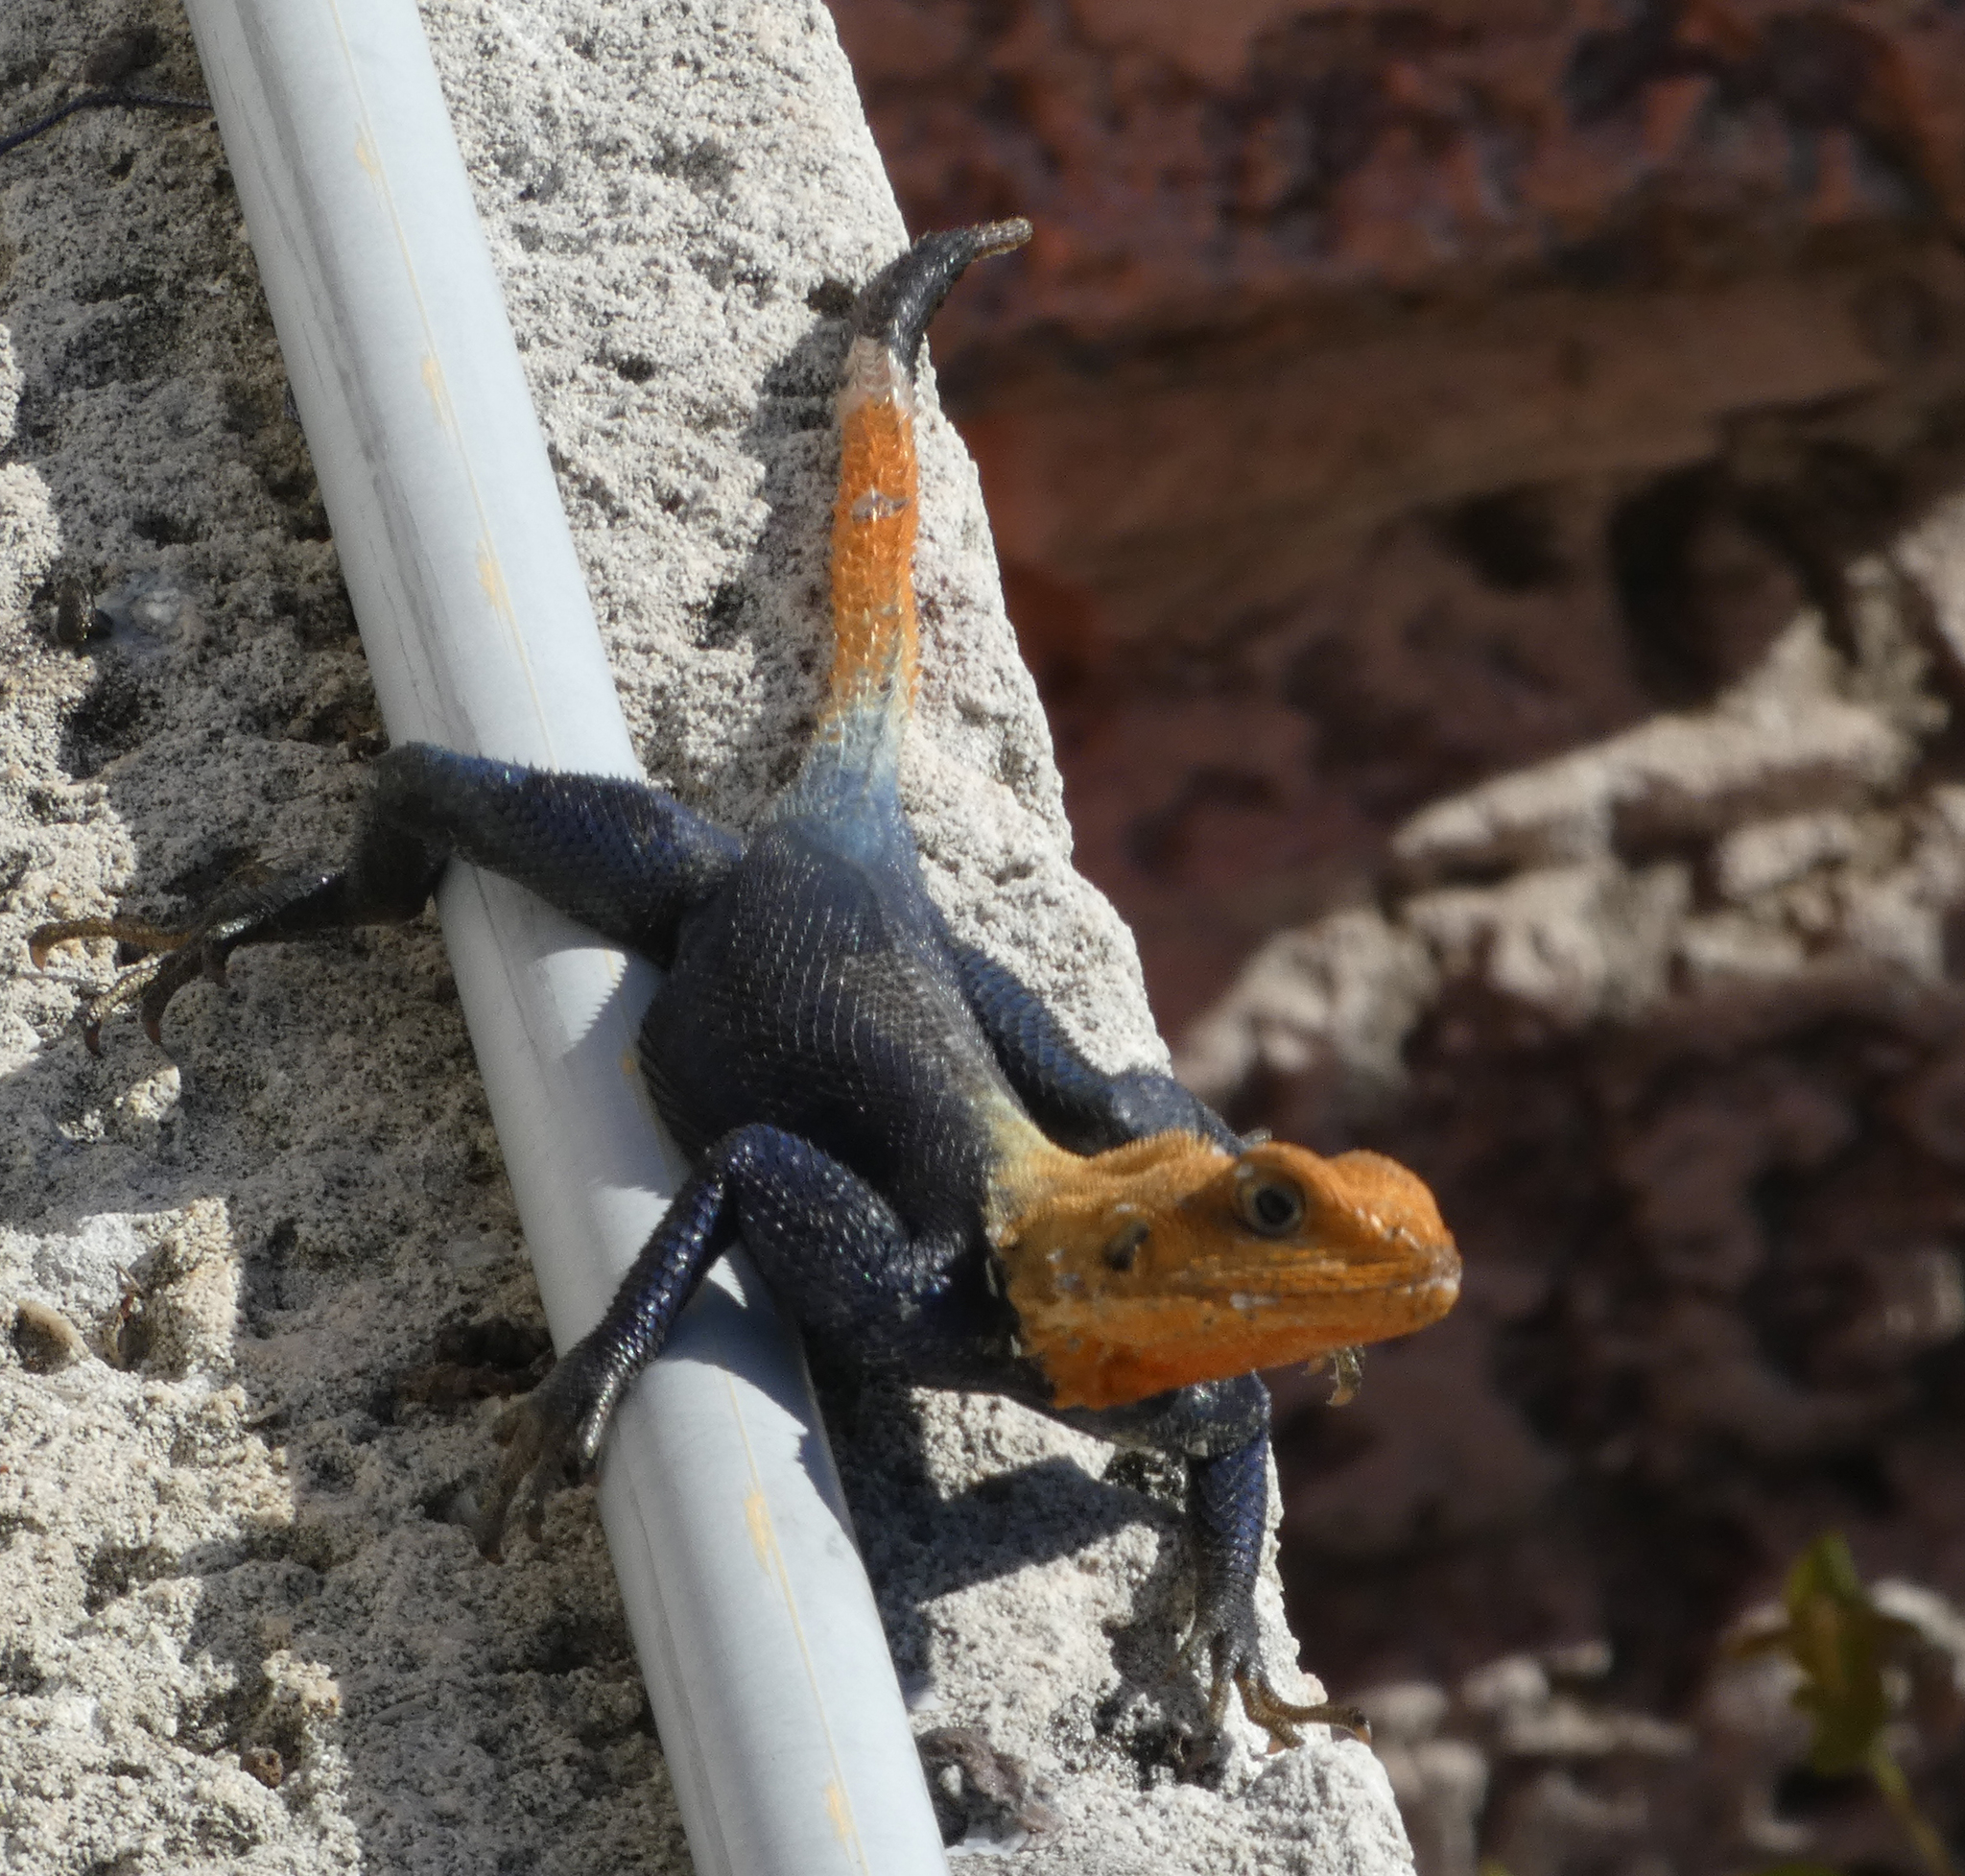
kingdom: Animalia
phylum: Chordata
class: Squamata
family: Agamidae
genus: Agama
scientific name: Agama picticauda
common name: Red-headed agama
